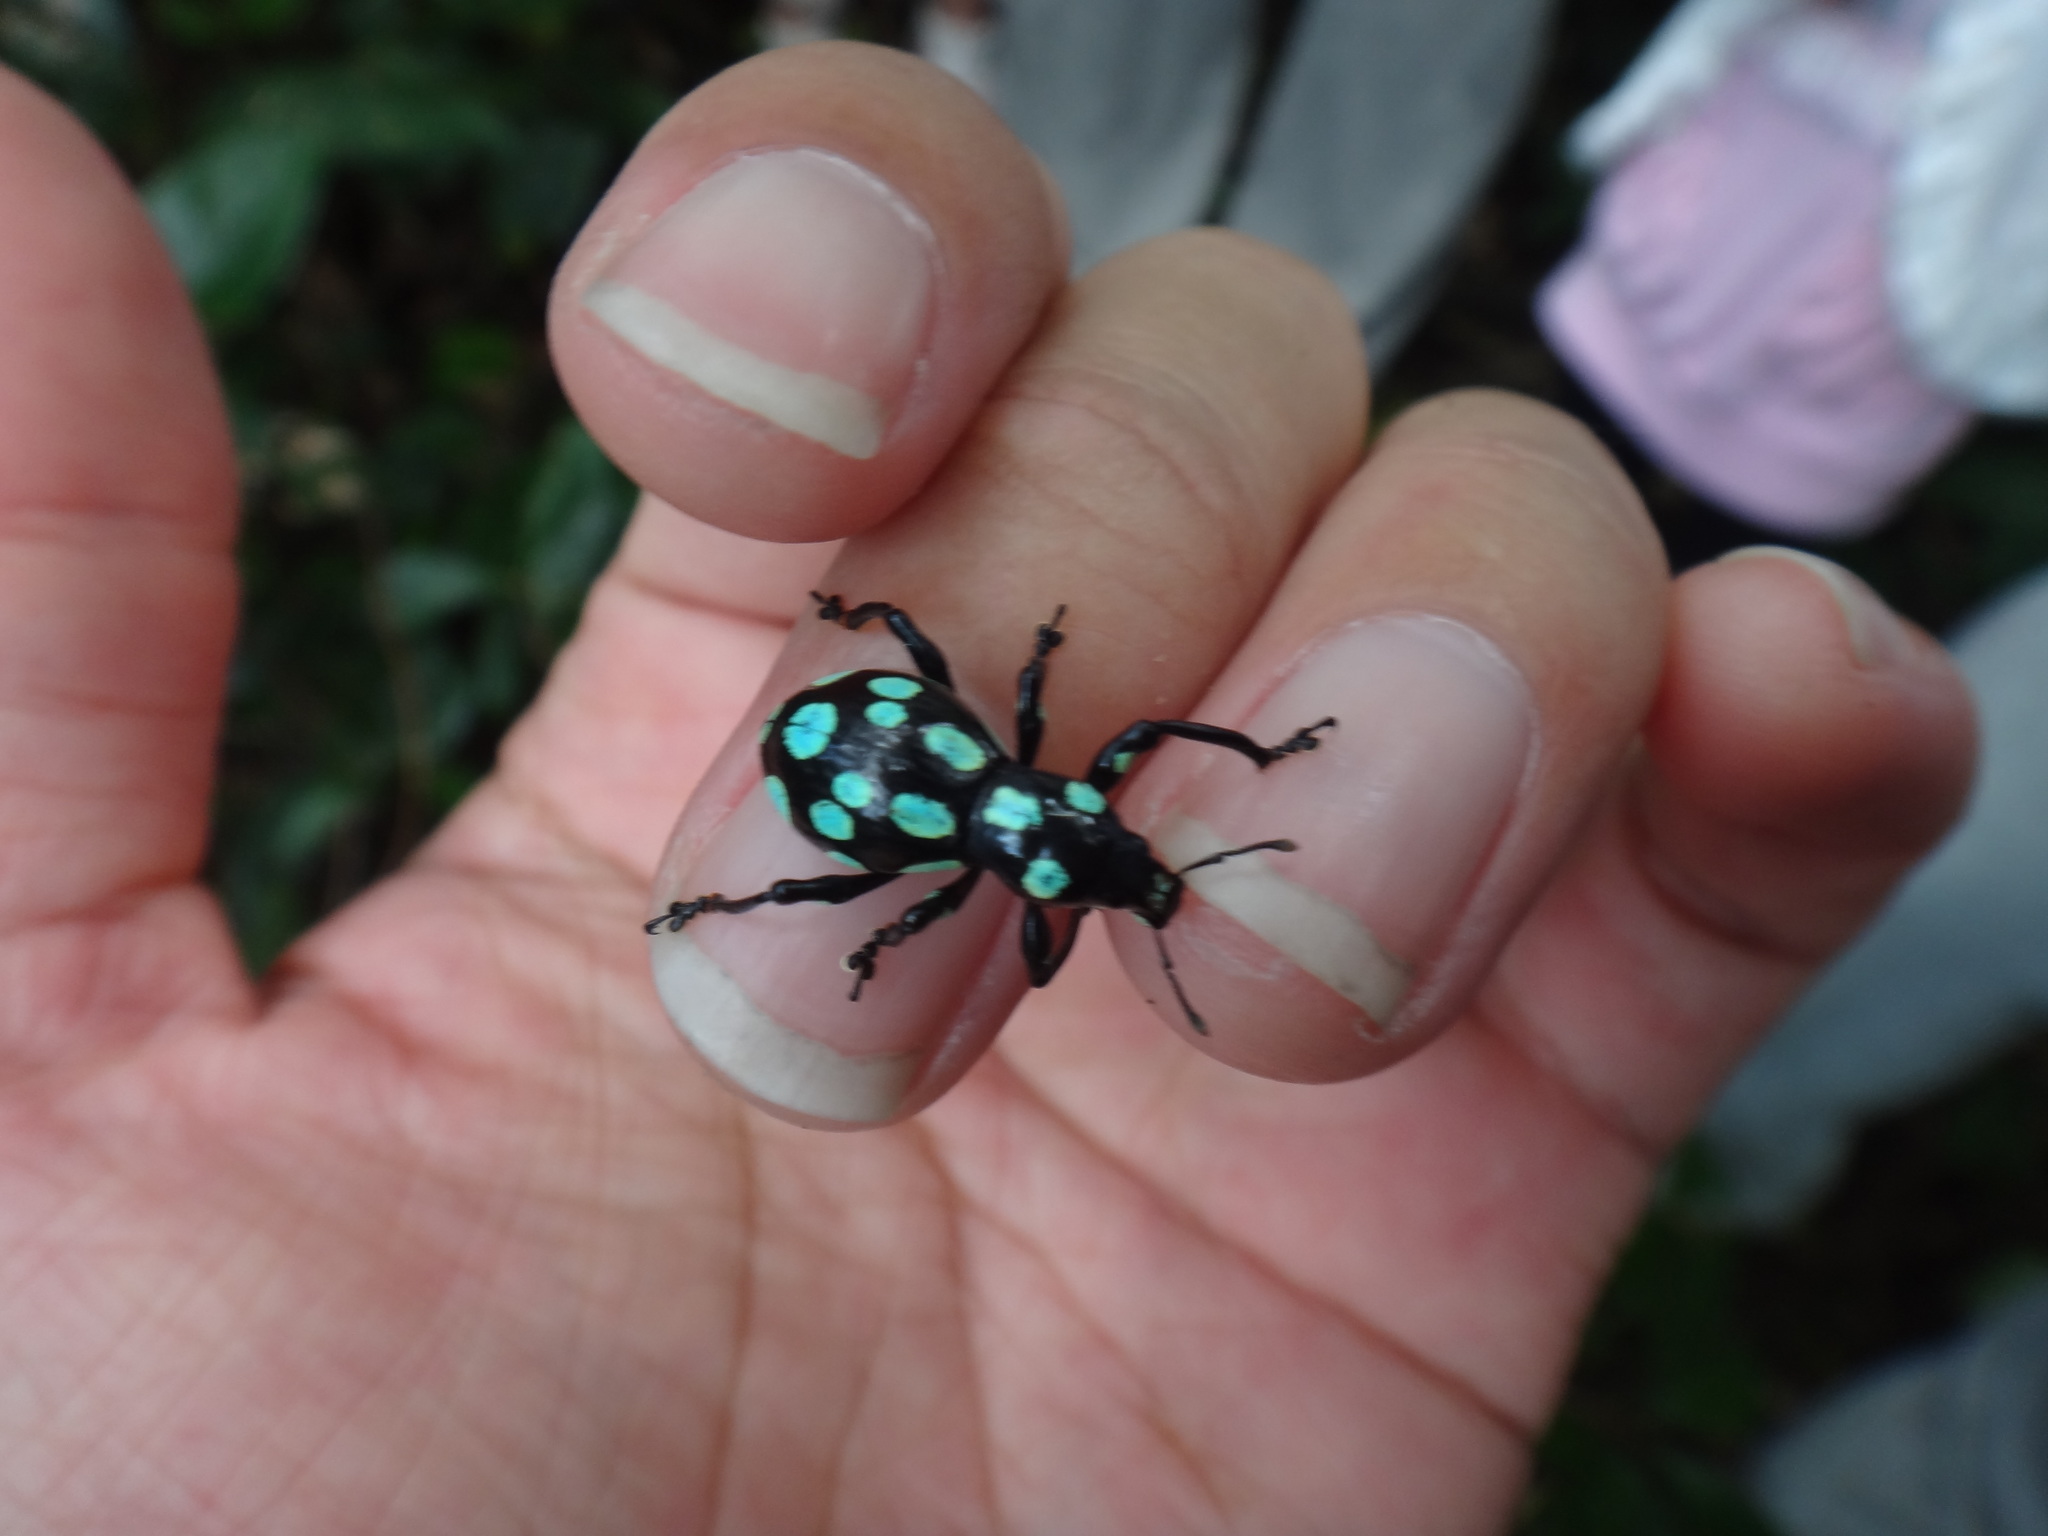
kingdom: Animalia
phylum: Arthropoda
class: Insecta
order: Coleoptera
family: Curculionidae
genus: Pachyrhynchus
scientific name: Pachyrhynchus sarcitis
